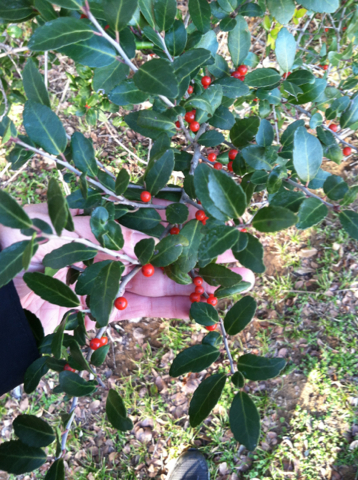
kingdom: Plantae
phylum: Tracheophyta
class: Magnoliopsida
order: Aquifoliales
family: Aquifoliaceae
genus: Ilex
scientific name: Ilex vomitoria
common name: Yaupon holly
